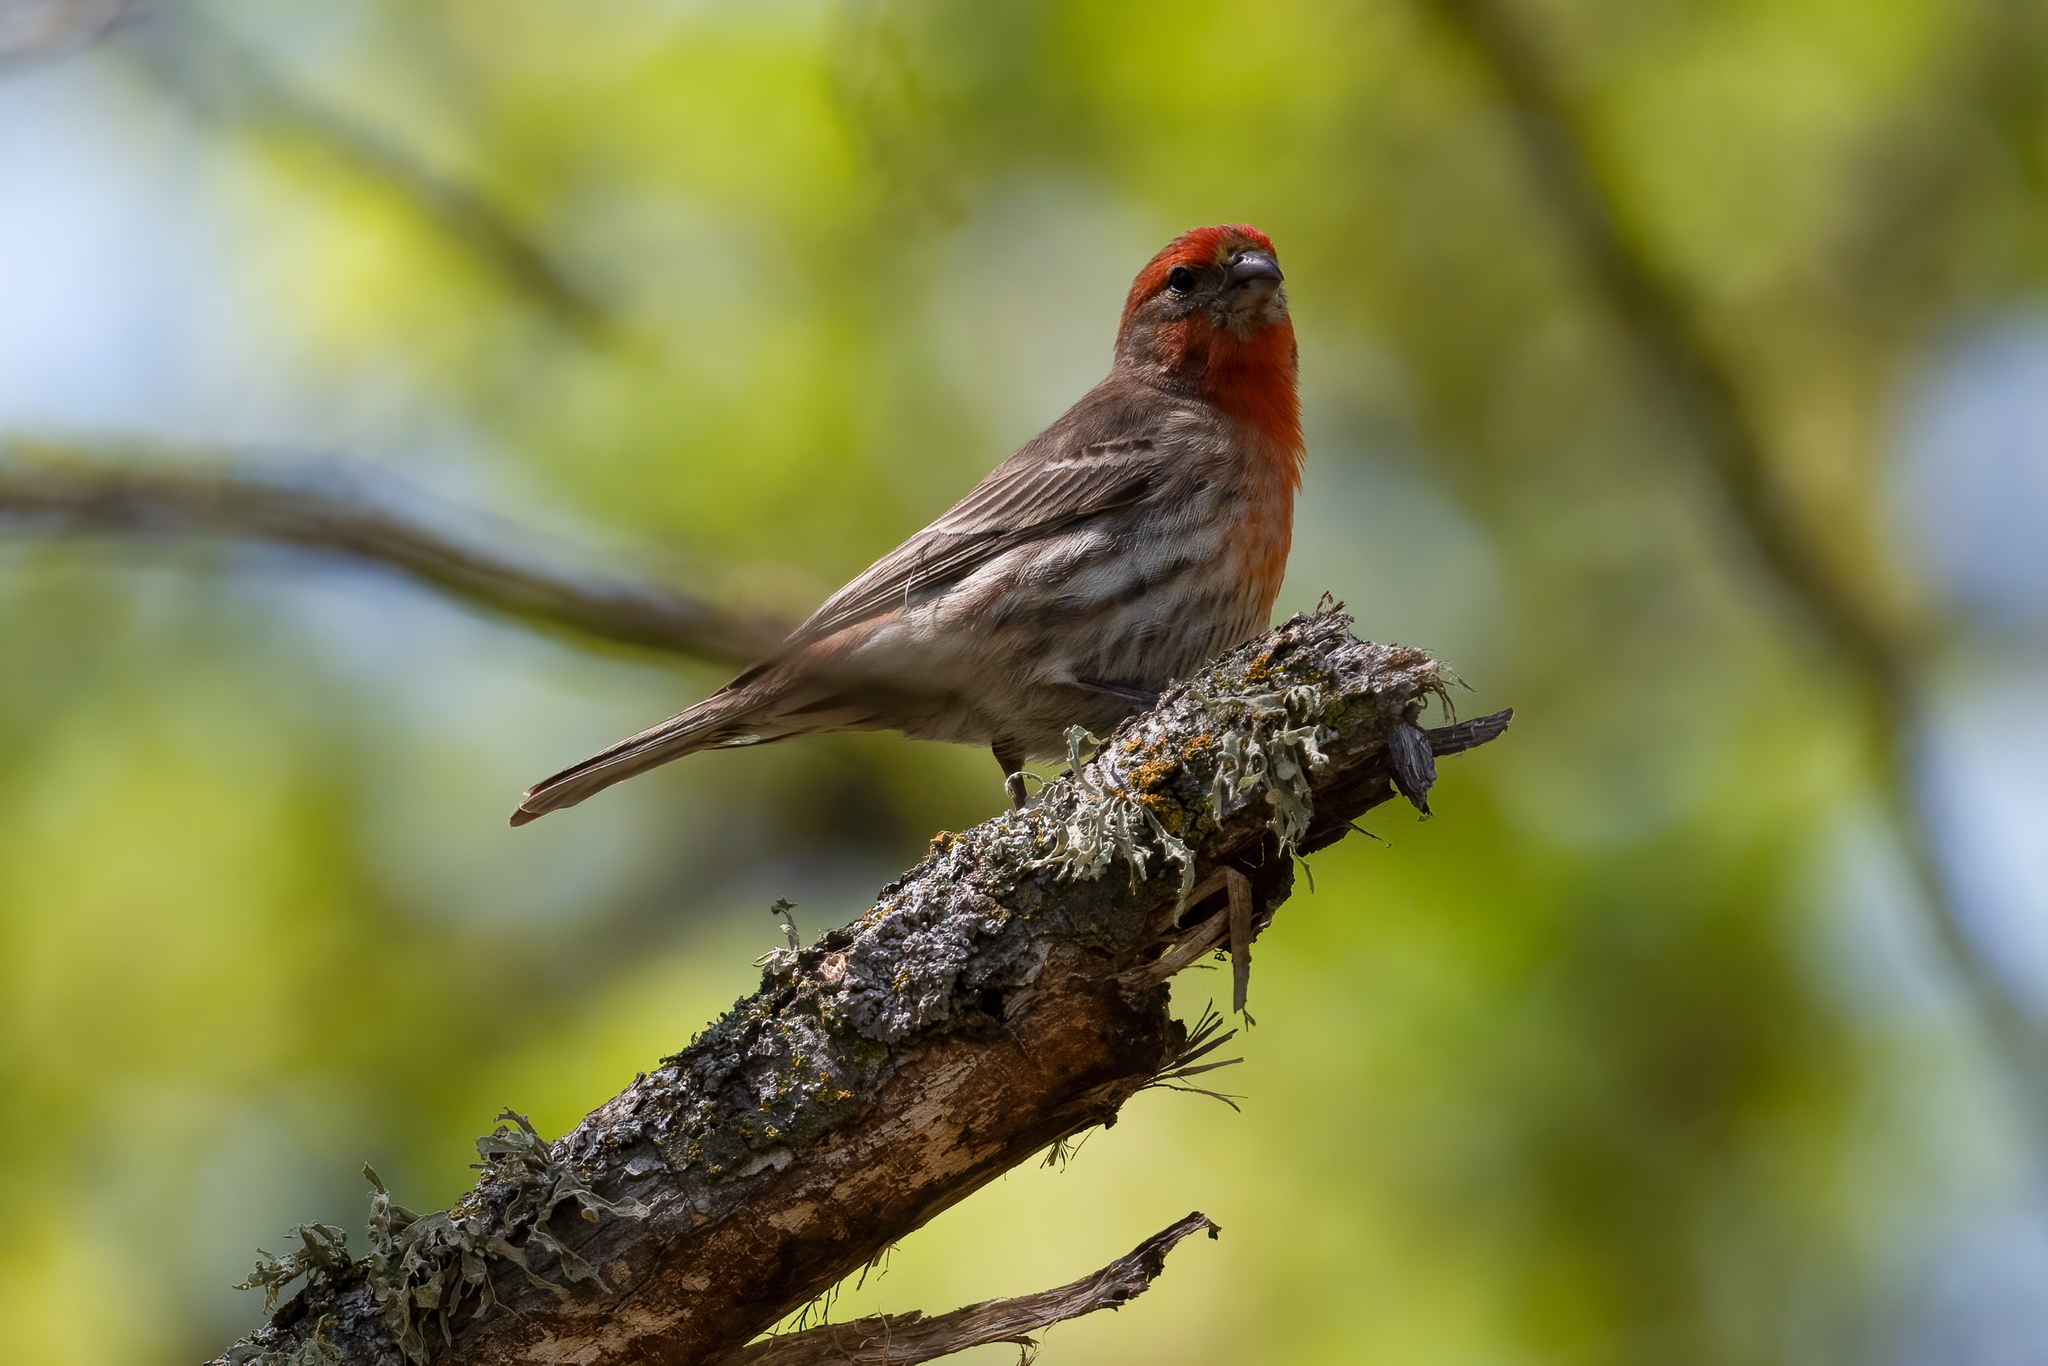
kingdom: Animalia
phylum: Chordata
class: Aves
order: Passeriformes
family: Fringillidae
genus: Haemorhous
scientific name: Haemorhous mexicanus
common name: House finch
